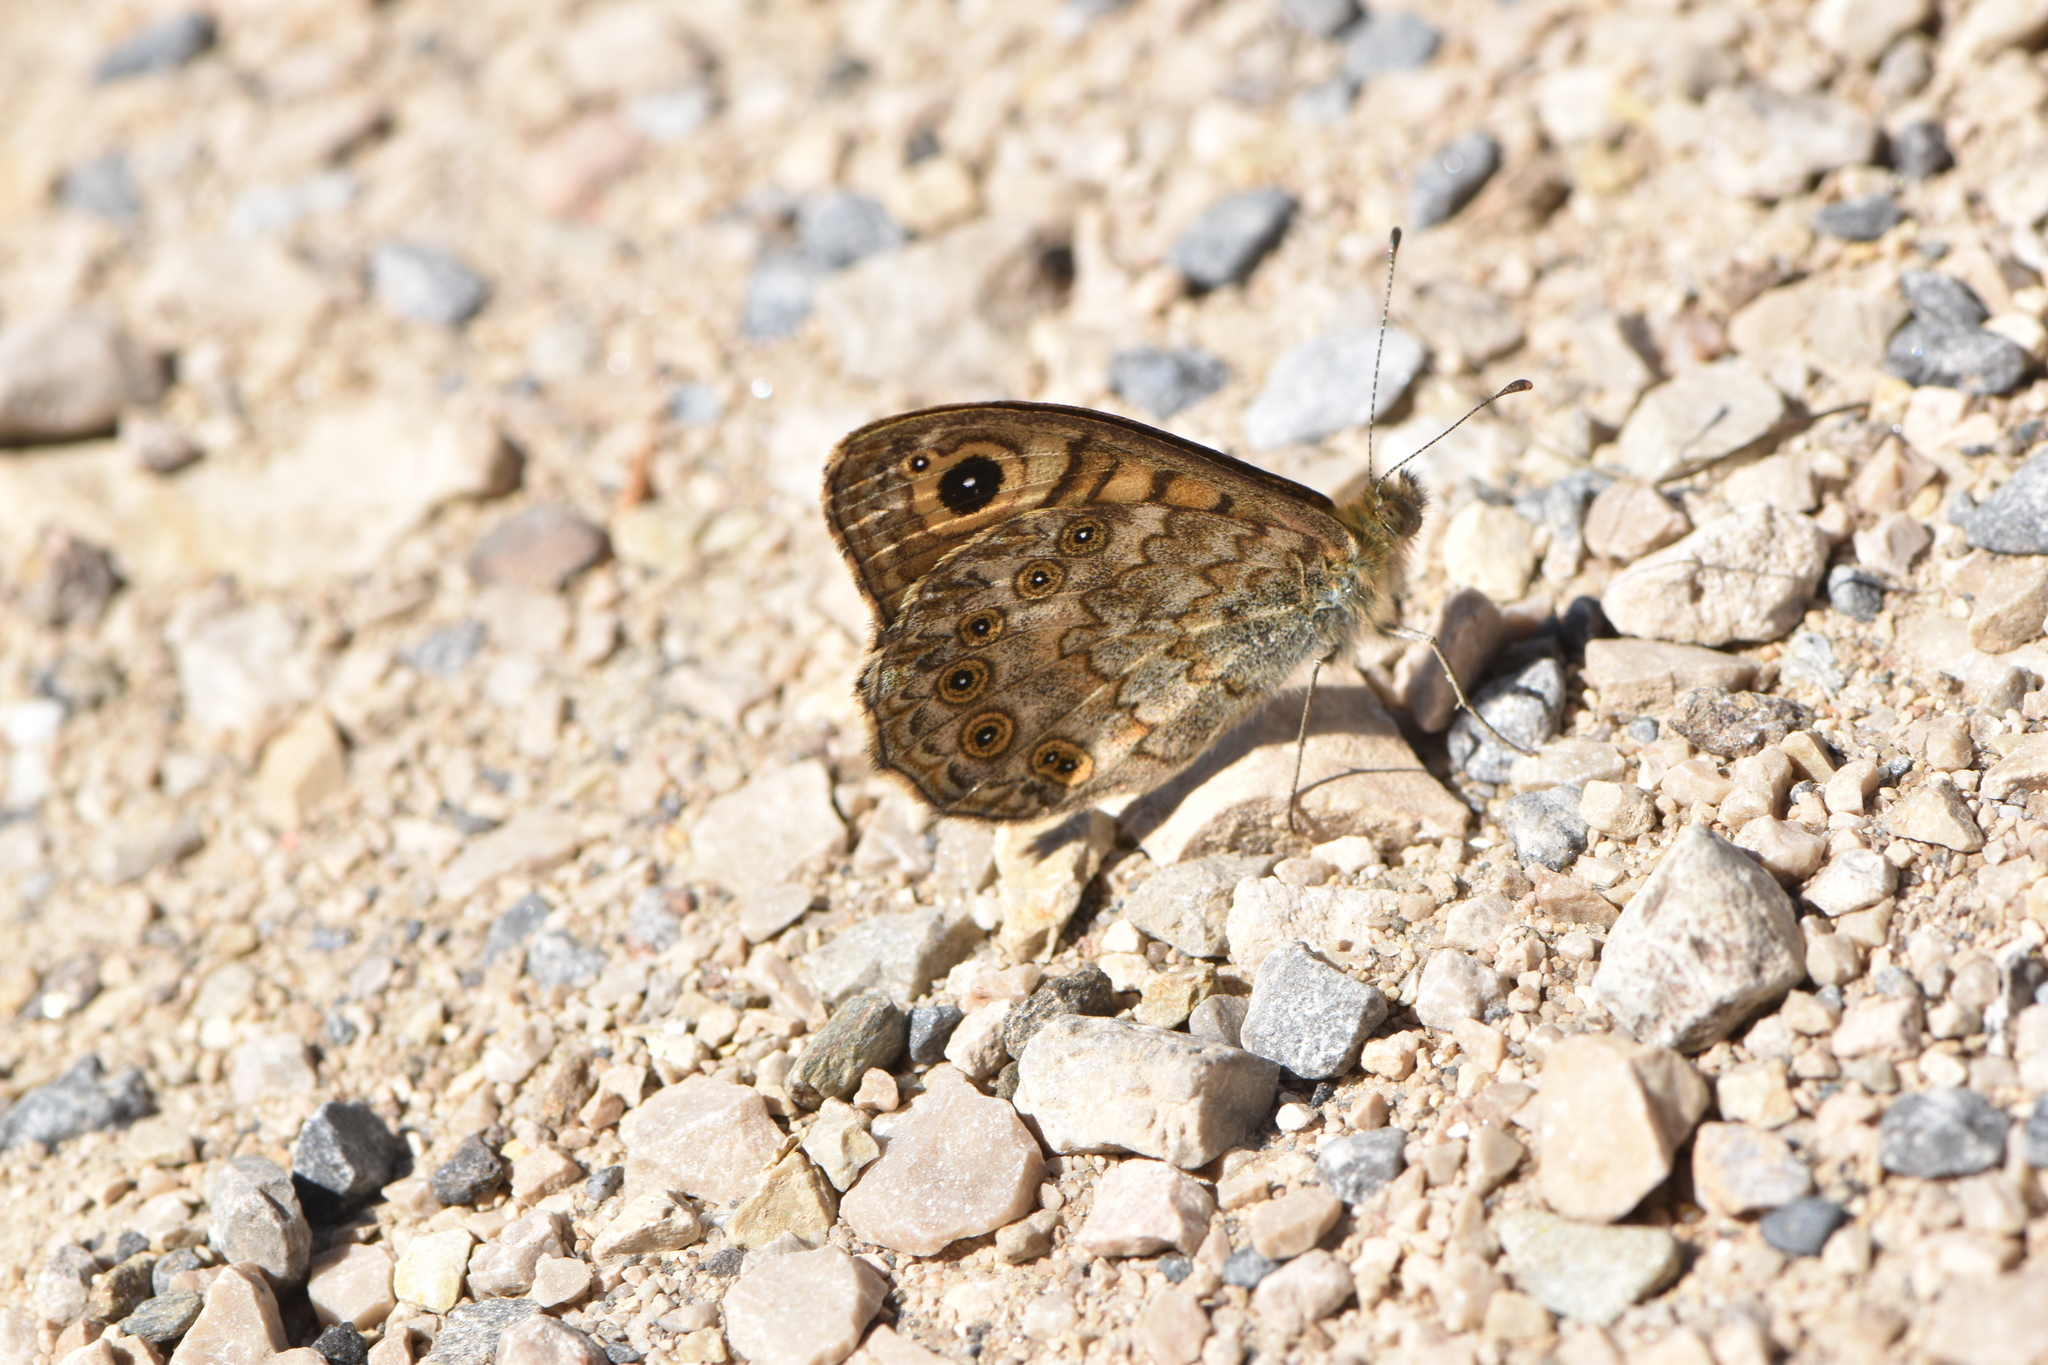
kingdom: Animalia
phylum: Arthropoda
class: Insecta
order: Lepidoptera
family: Nymphalidae
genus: Pararge
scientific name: Pararge Lasiommata megera
